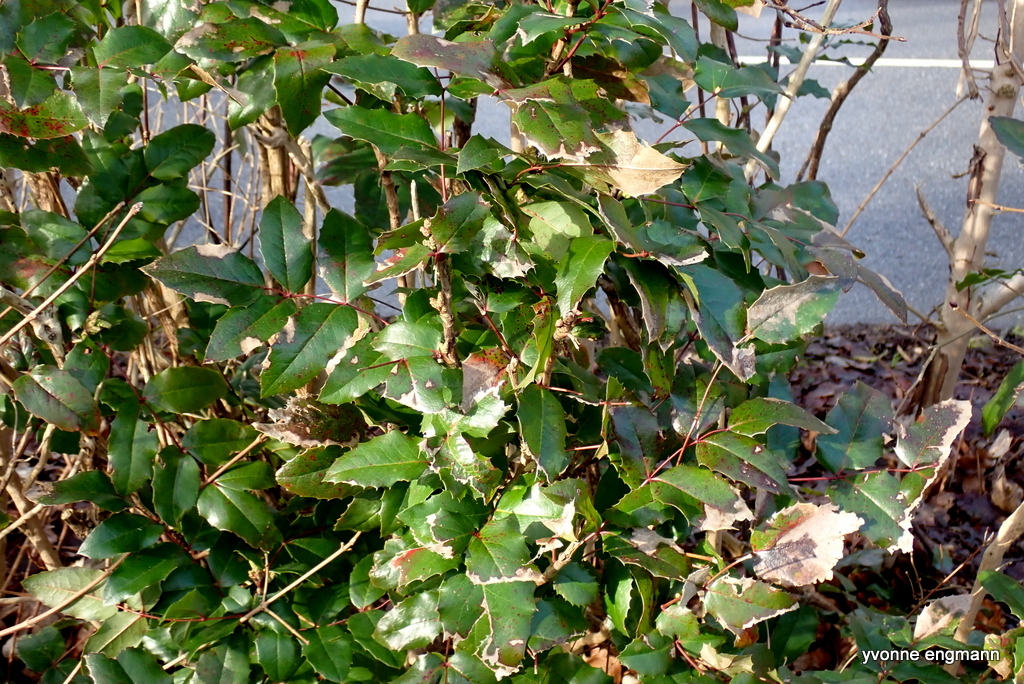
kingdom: Plantae
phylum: Tracheophyta
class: Magnoliopsida
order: Ranunculales
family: Berberidaceae
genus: Mahonia
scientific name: Mahonia aquifolium
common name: Oregon-grape
